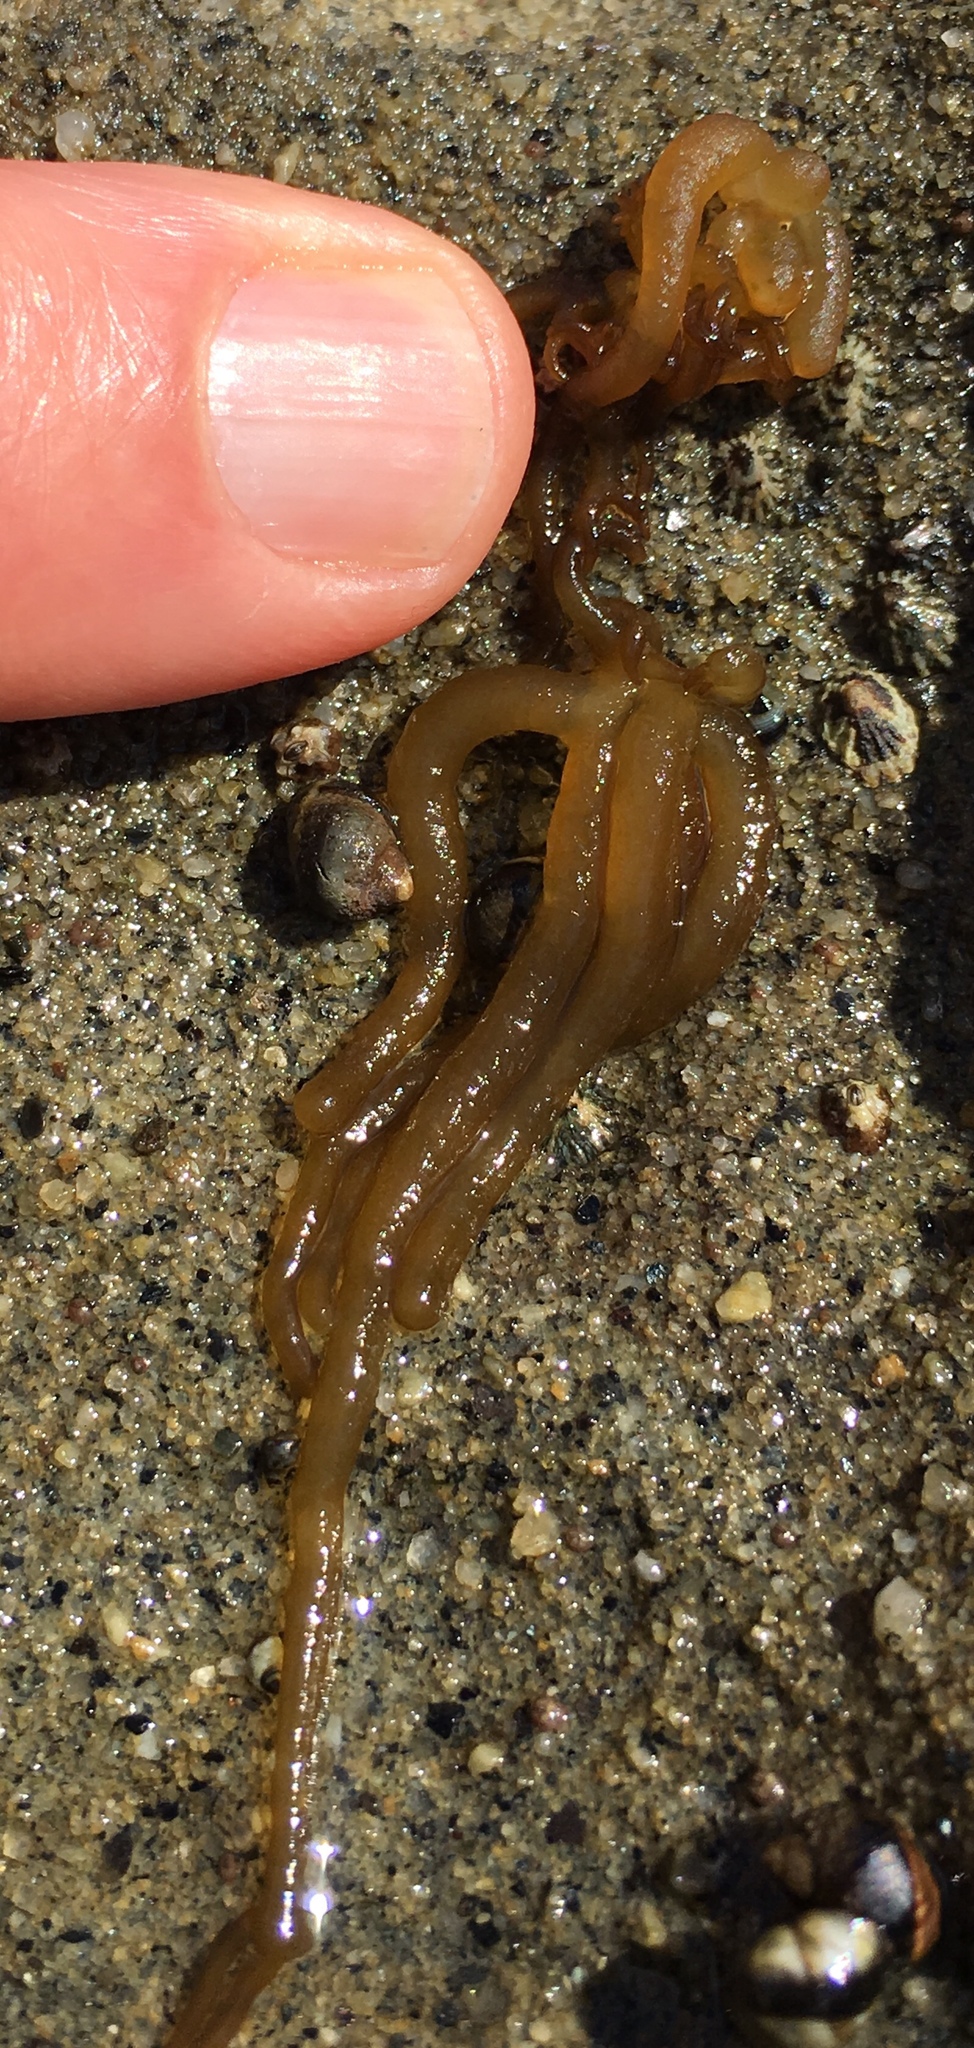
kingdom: Plantae
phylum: Rhodophyta
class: Florideophyceae
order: Nemaliales
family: Nemaliaceae
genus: Nemalion
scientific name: Nemalion elminthoides
